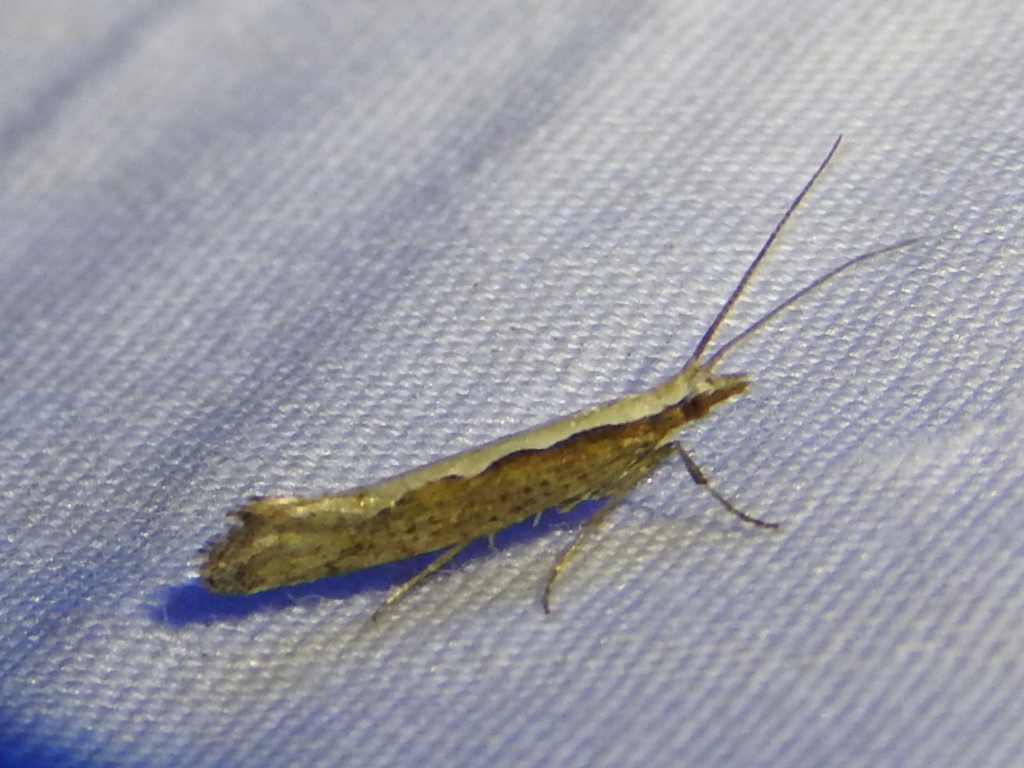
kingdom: Animalia
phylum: Arthropoda
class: Insecta
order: Lepidoptera
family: Plutellidae
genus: Plutella
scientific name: Plutella xylostella
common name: Diamond-back moth
